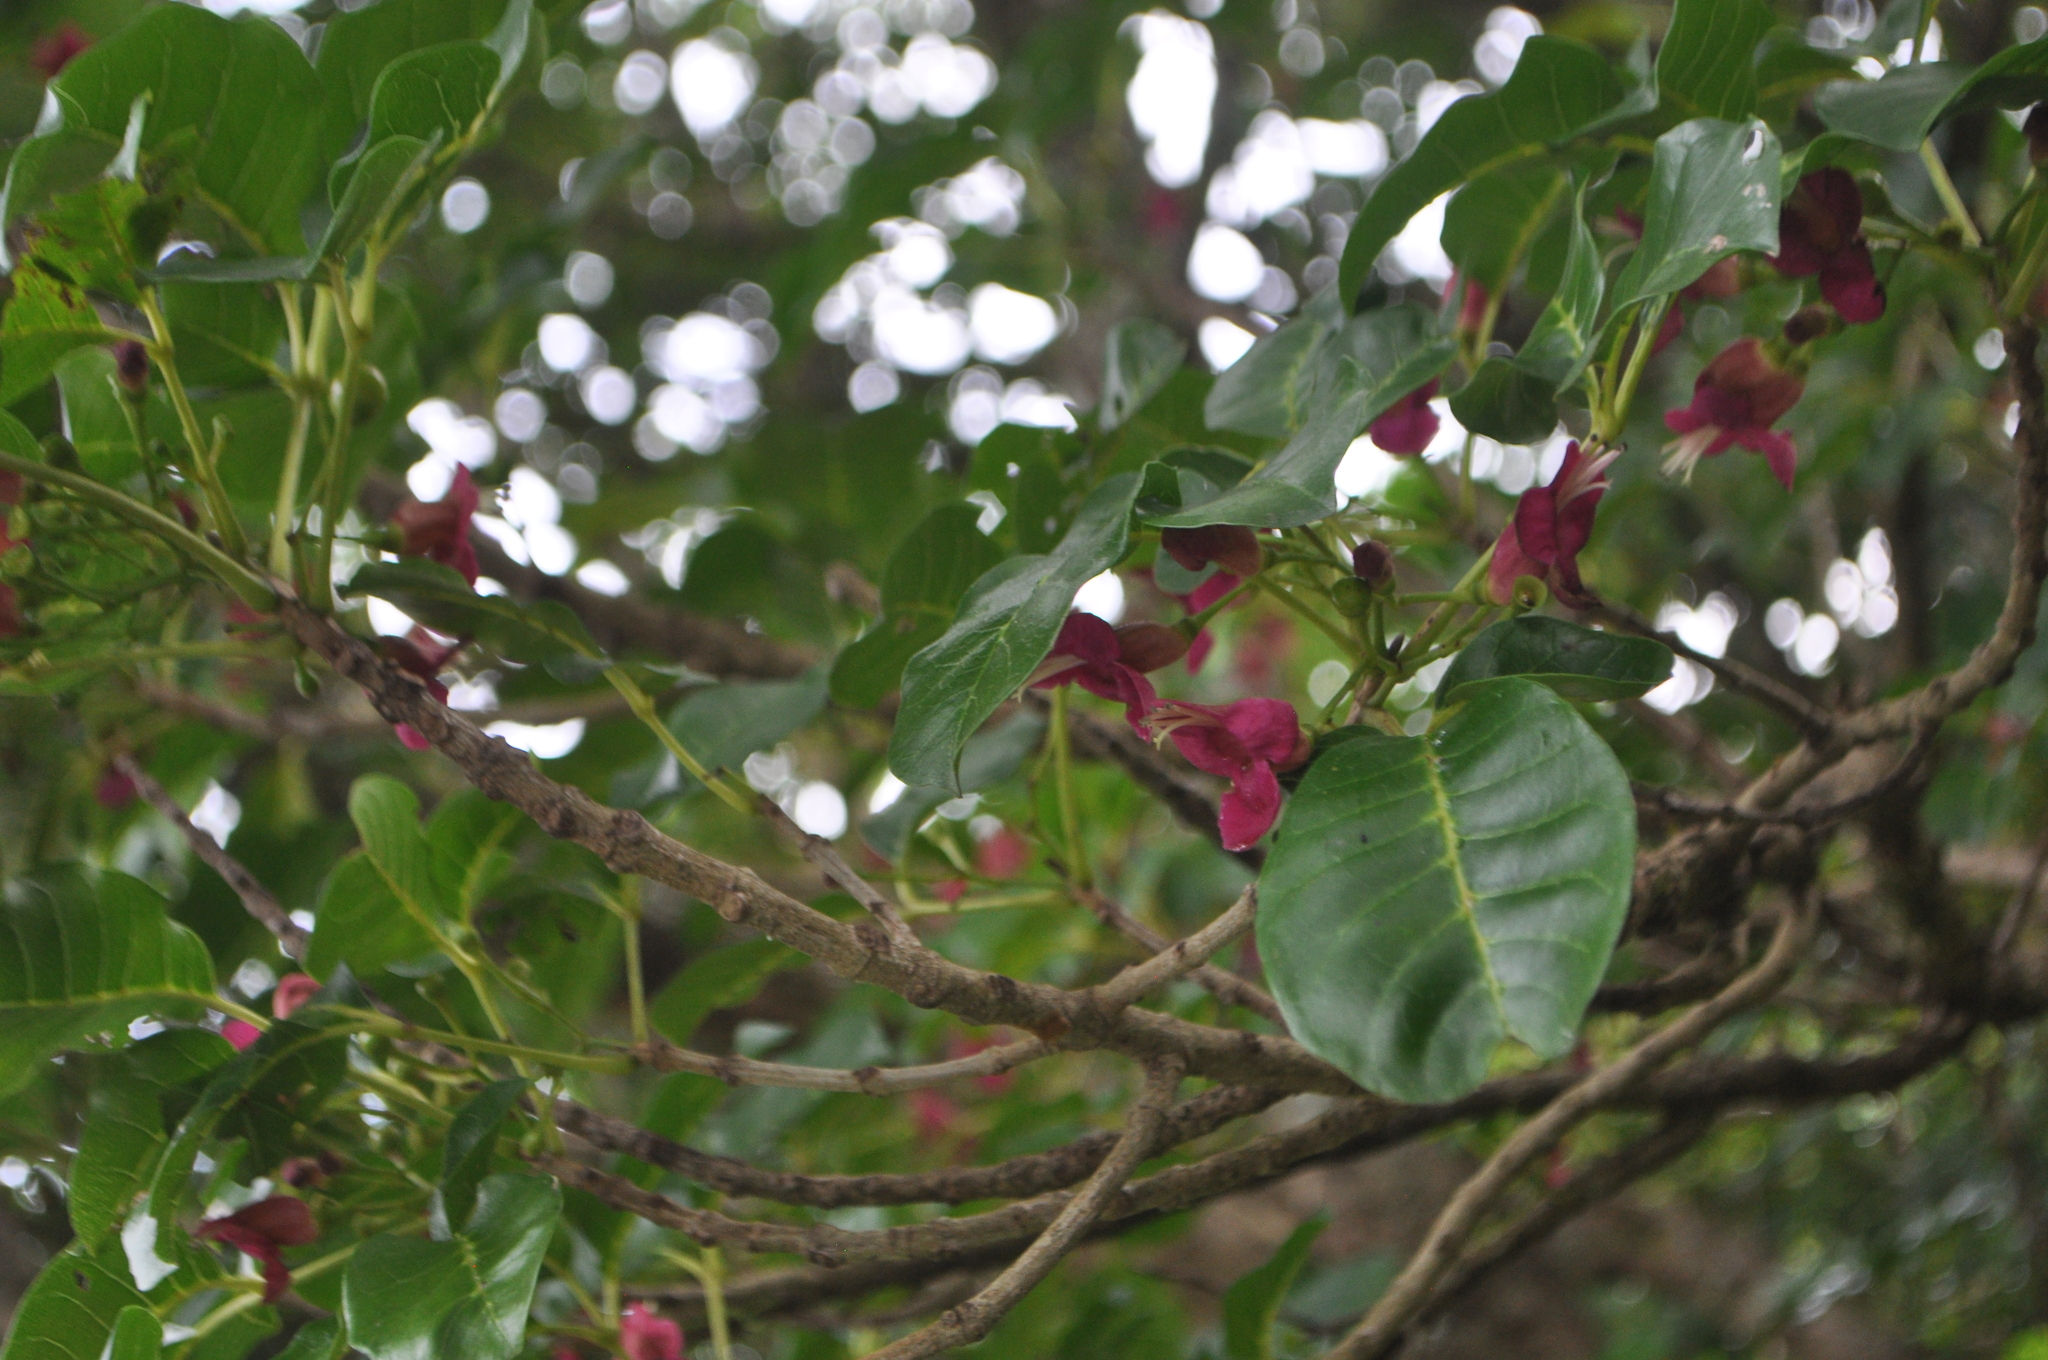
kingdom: Plantae
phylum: Tracheophyta
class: Magnoliopsida
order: Lamiales
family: Lamiaceae
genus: Vitex
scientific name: Vitex lucens
